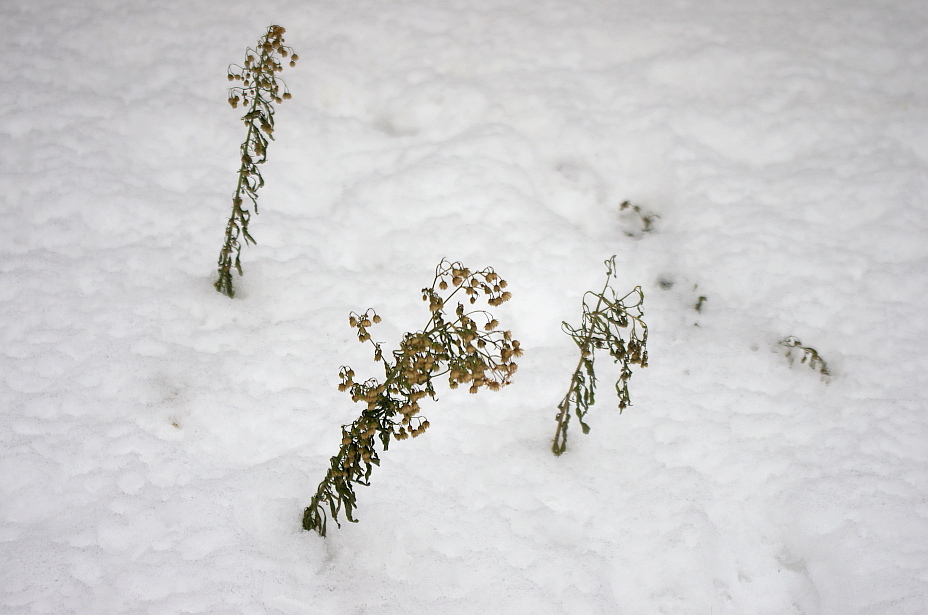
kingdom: Plantae
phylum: Tracheophyta
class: Magnoliopsida
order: Asterales
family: Asteraceae
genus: Erigeron
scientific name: Erigeron canadensis
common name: Canadian fleabane
